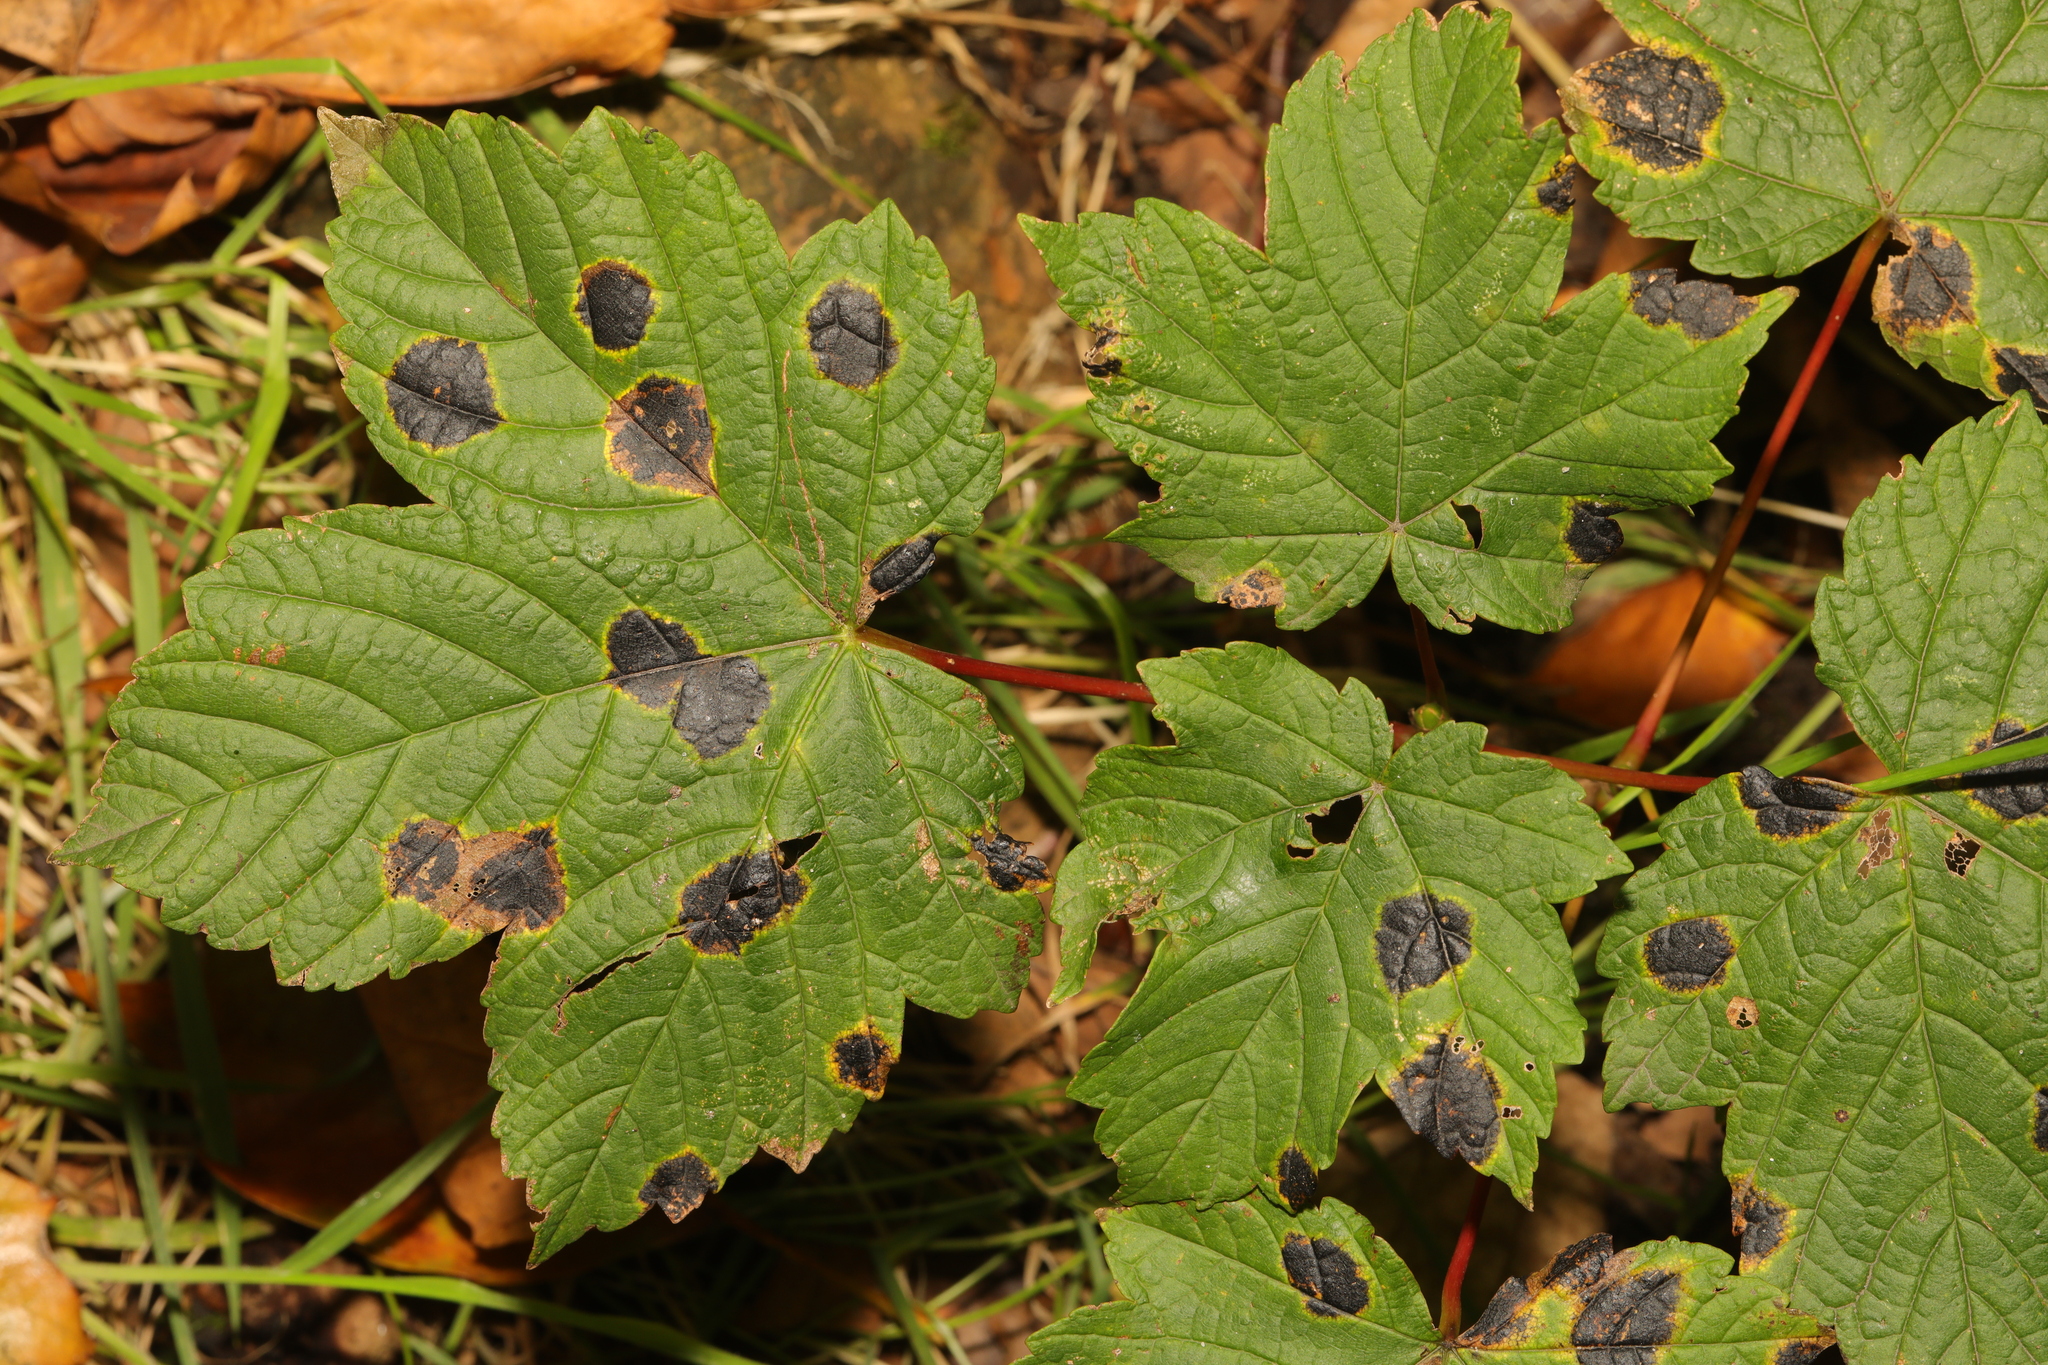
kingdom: Plantae
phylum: Tracheophyta
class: Magnoliopsida
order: Sapindales
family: Sapindaceae
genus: Acer
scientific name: Acer pseudoplatanus
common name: Sycamore
